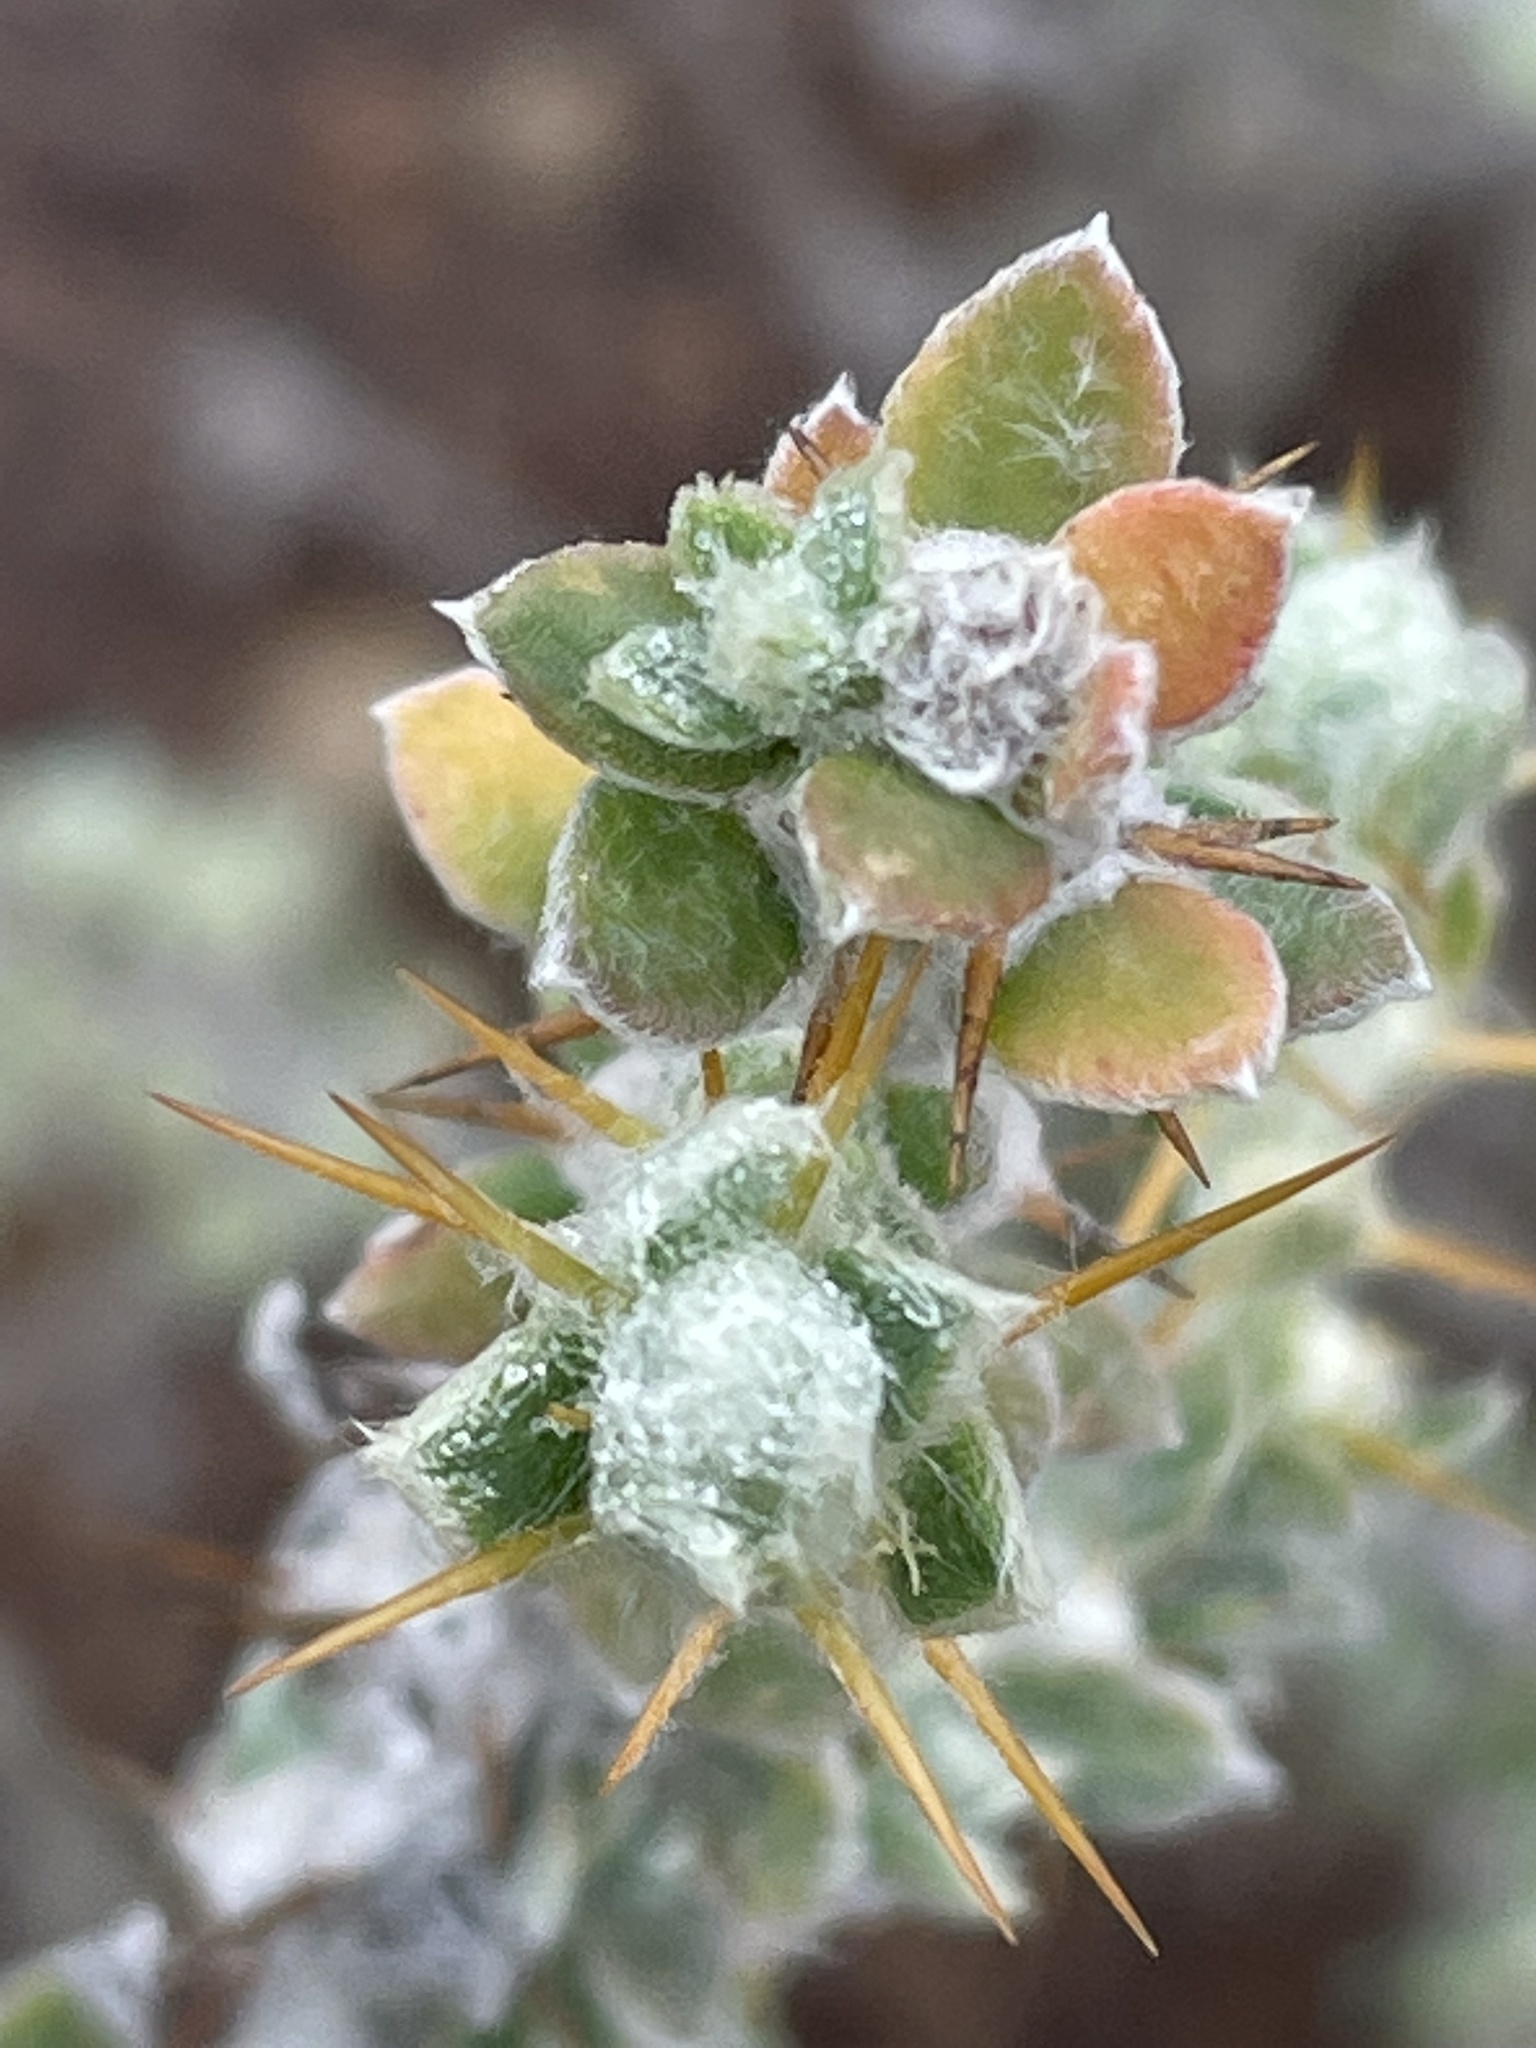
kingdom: Plantae
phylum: Tracheophyta
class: Magnoliopsida
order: Caryophyllales
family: Amaranthaceae
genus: Sclerolaena
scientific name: Sclerolaena birchii
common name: Galvanized bur
